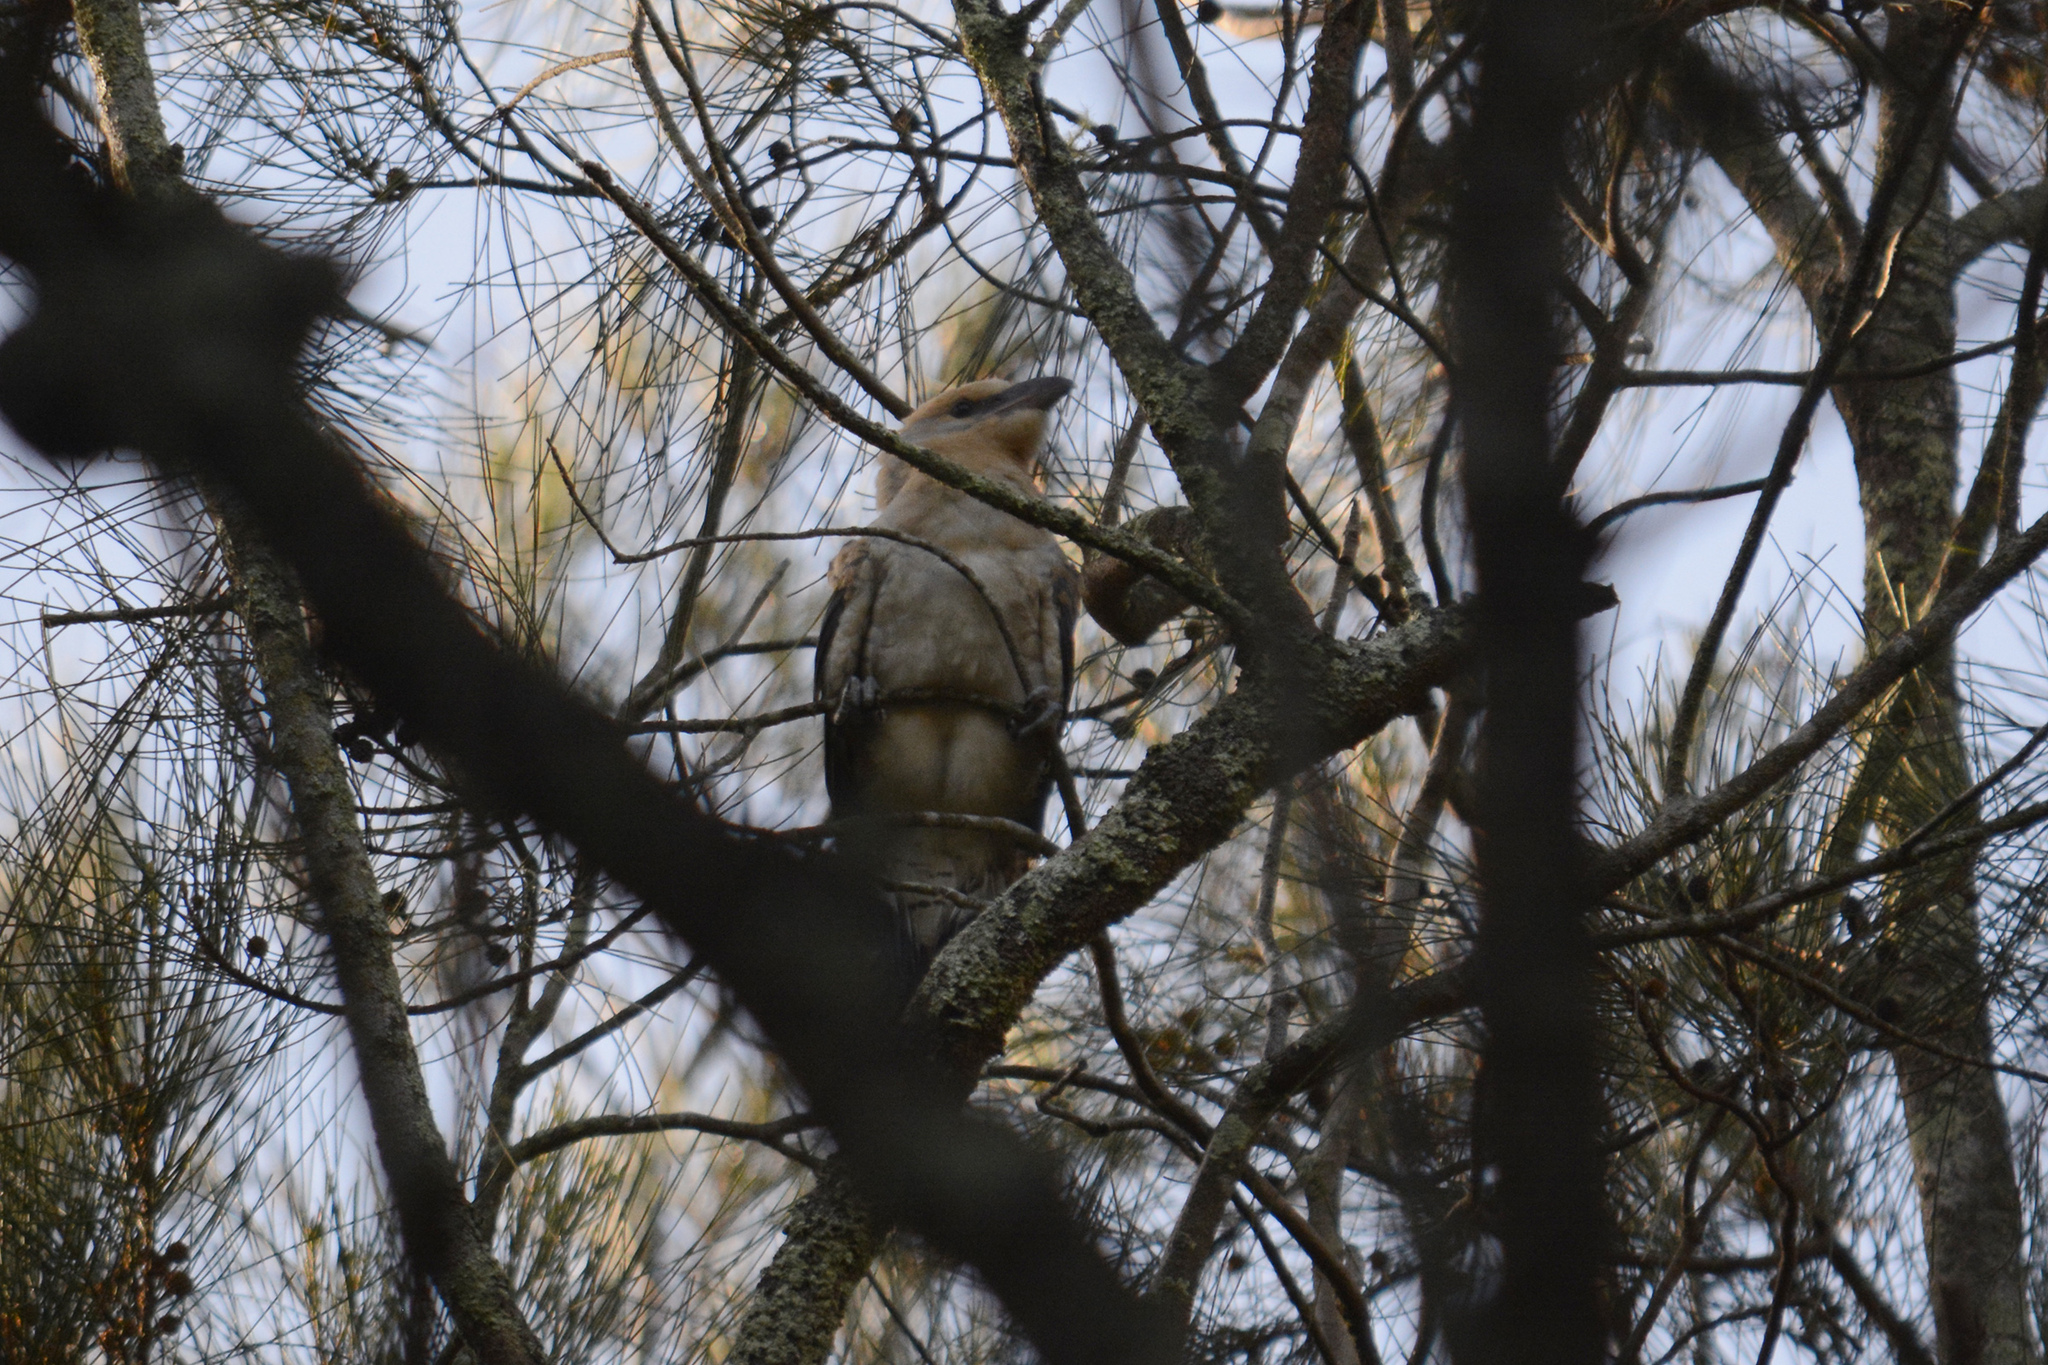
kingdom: Animalia
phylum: Chordata
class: Aves
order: Cuculiformes
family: Cuculidae
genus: Scythrops
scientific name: Scythrops novaehollandiae
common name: Channel-billed cuckoo
